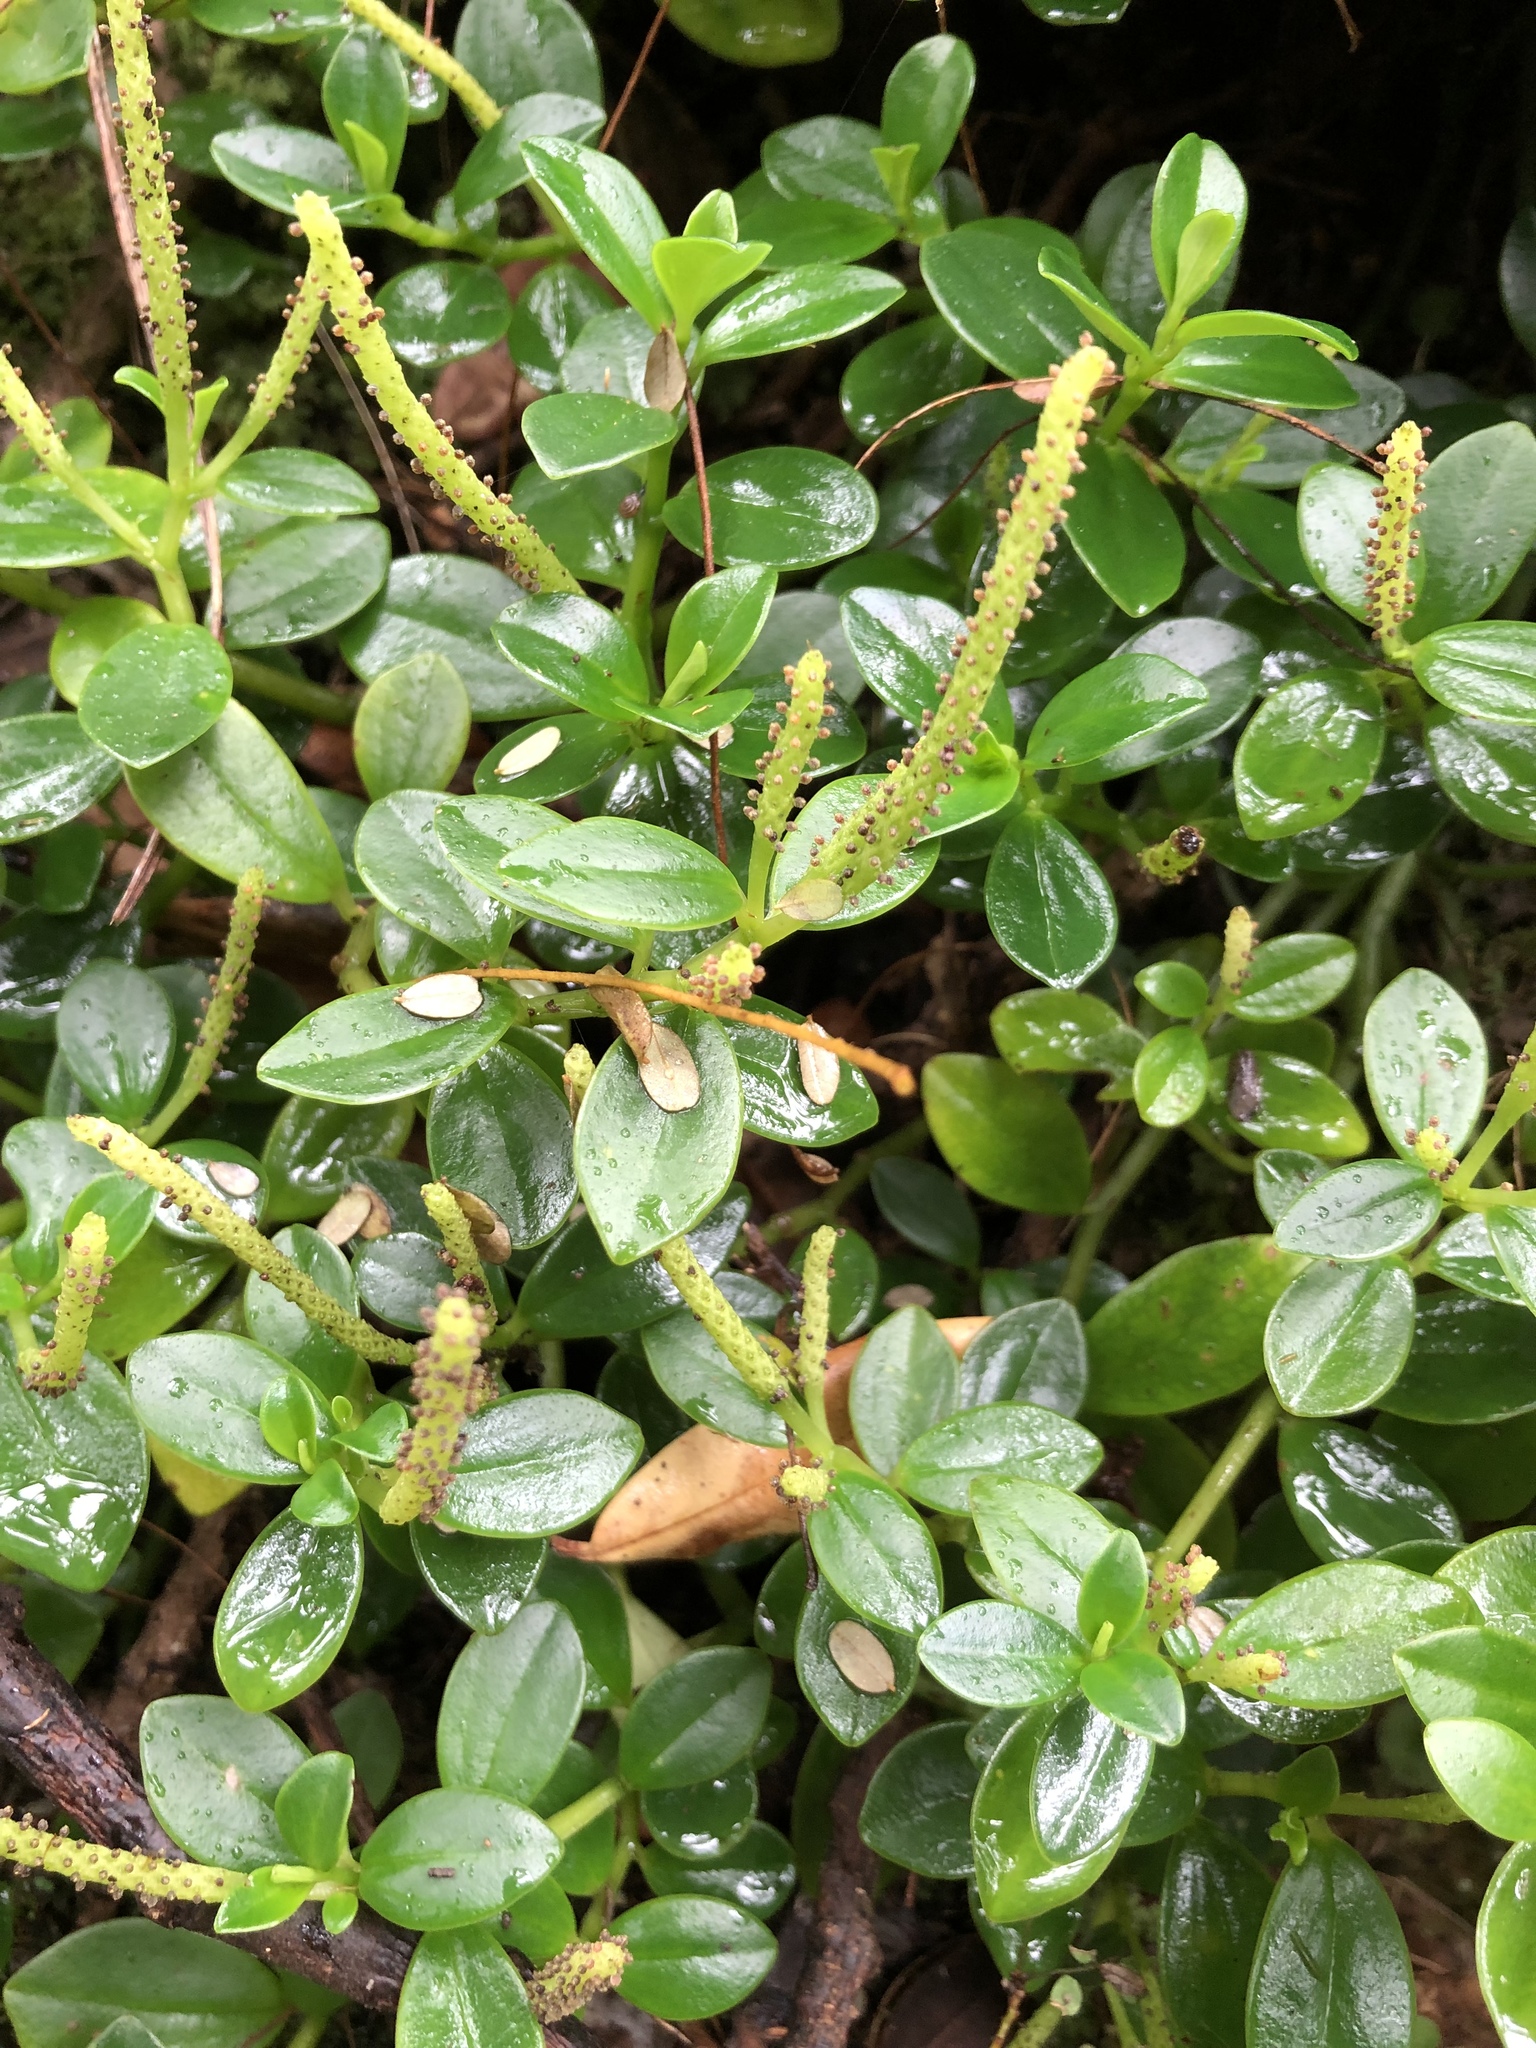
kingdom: Plantae
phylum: Tracheophyta
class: Magnoliopsida
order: Piperales
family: Piperaceae
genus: Peperomia
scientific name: Peperomia urvilleana
